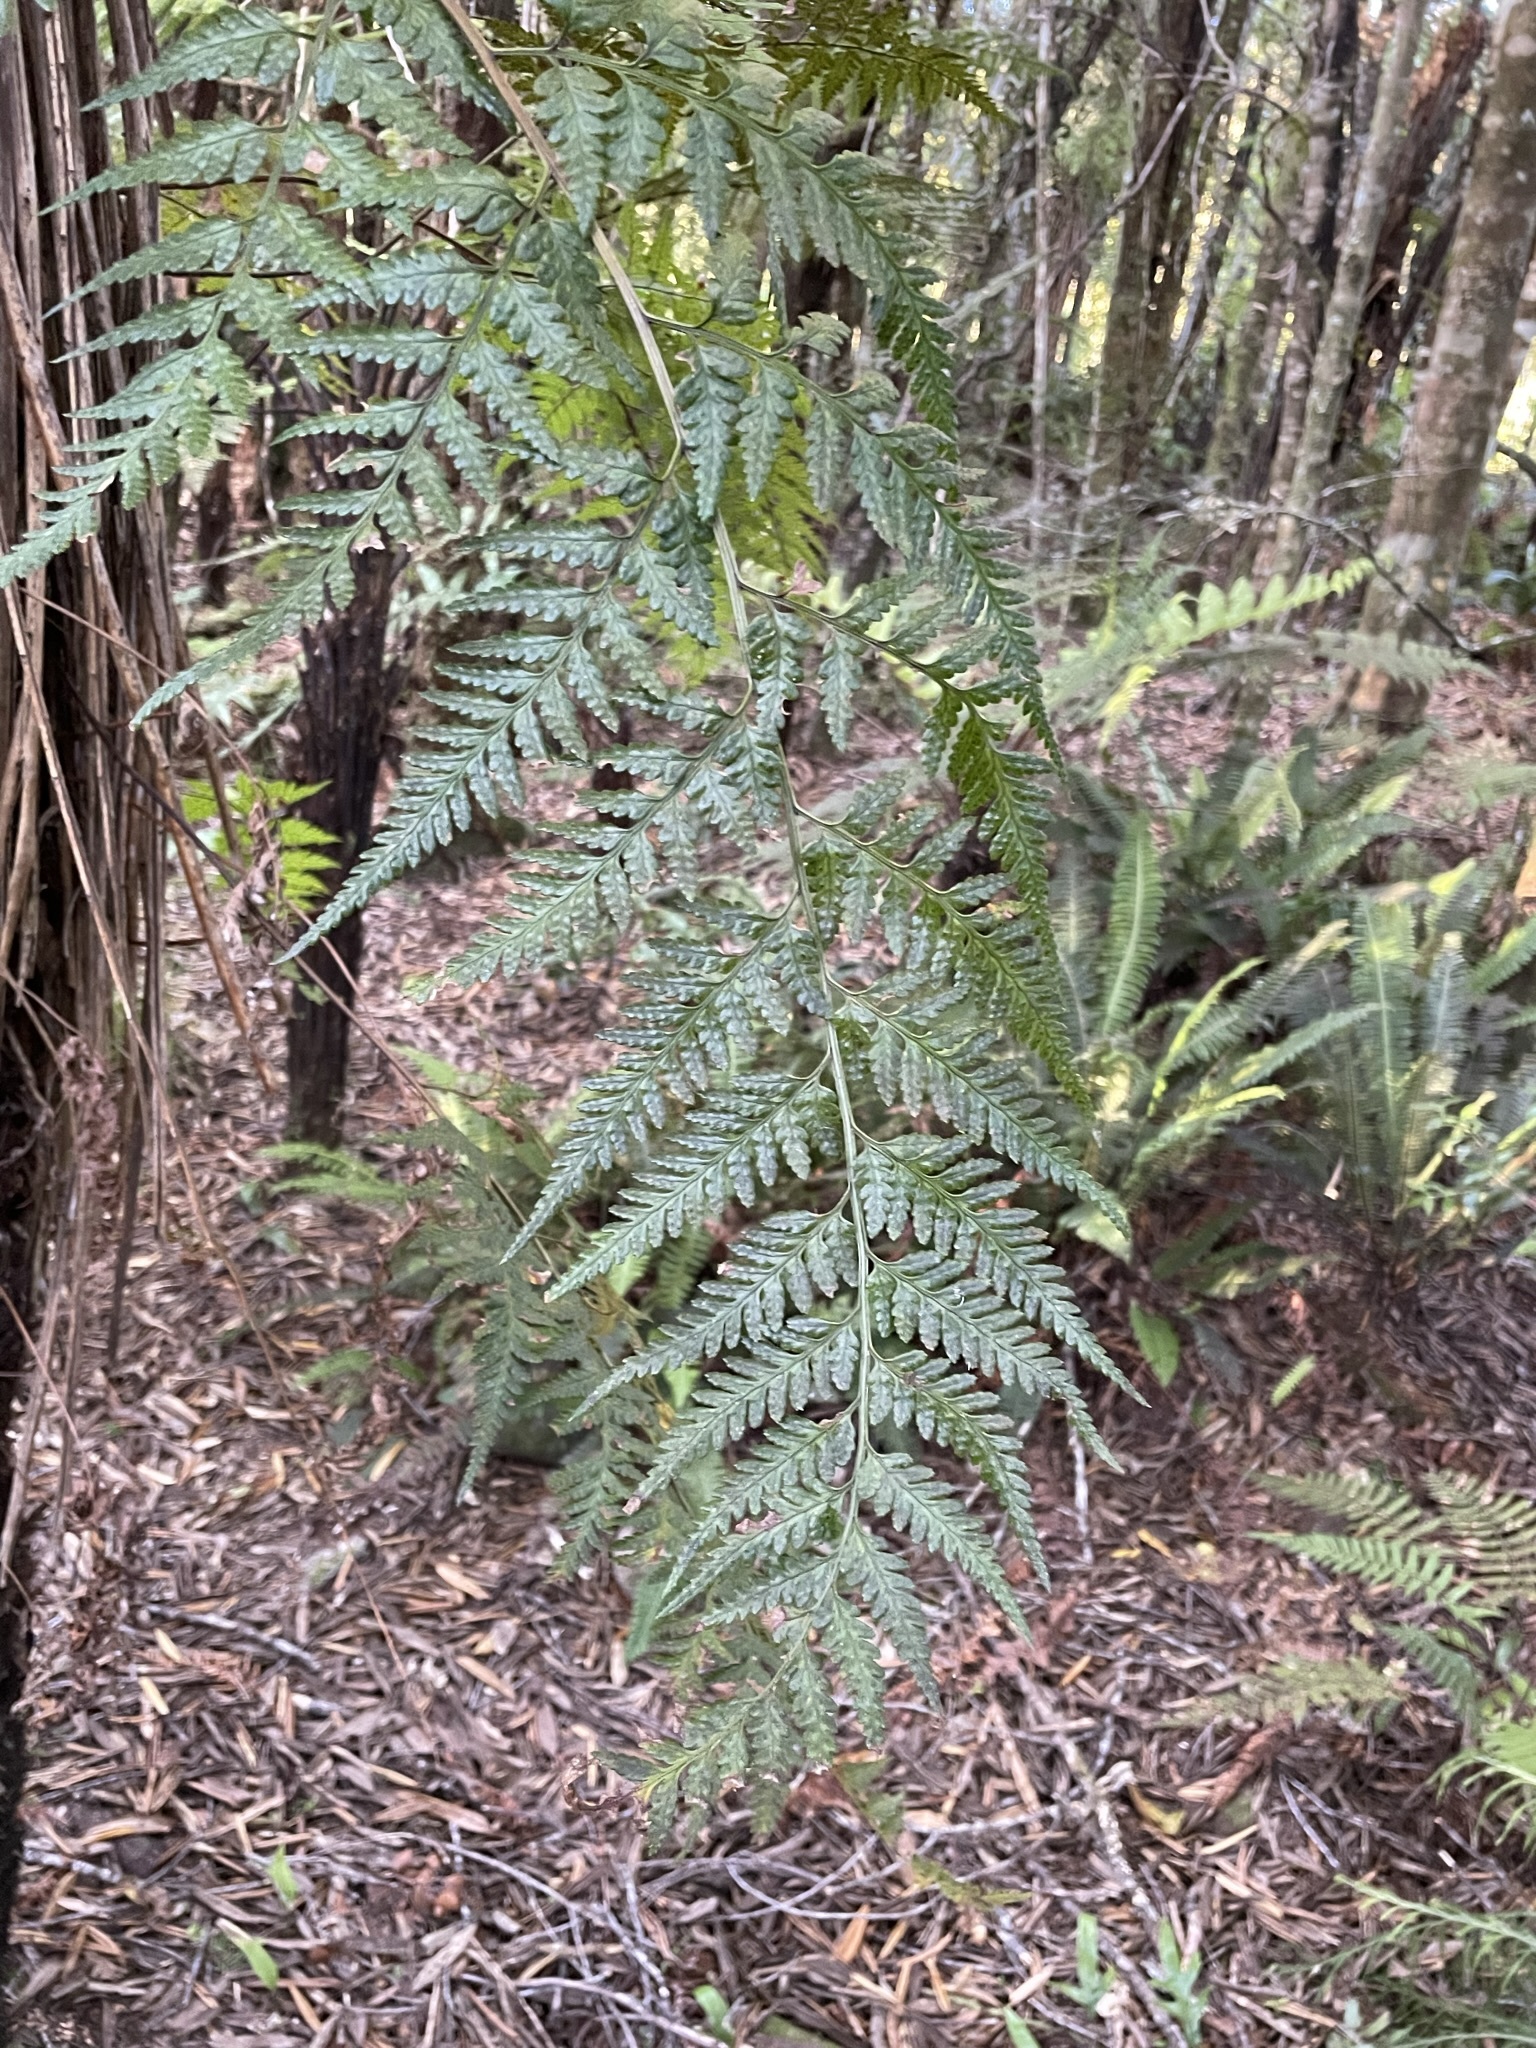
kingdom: Plantae
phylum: Tracheophyta
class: Polypodiopsida
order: Polypodiales
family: Dryopteridaceae
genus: Rumohra
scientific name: Rumohra adiantiformis
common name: Leather fern
